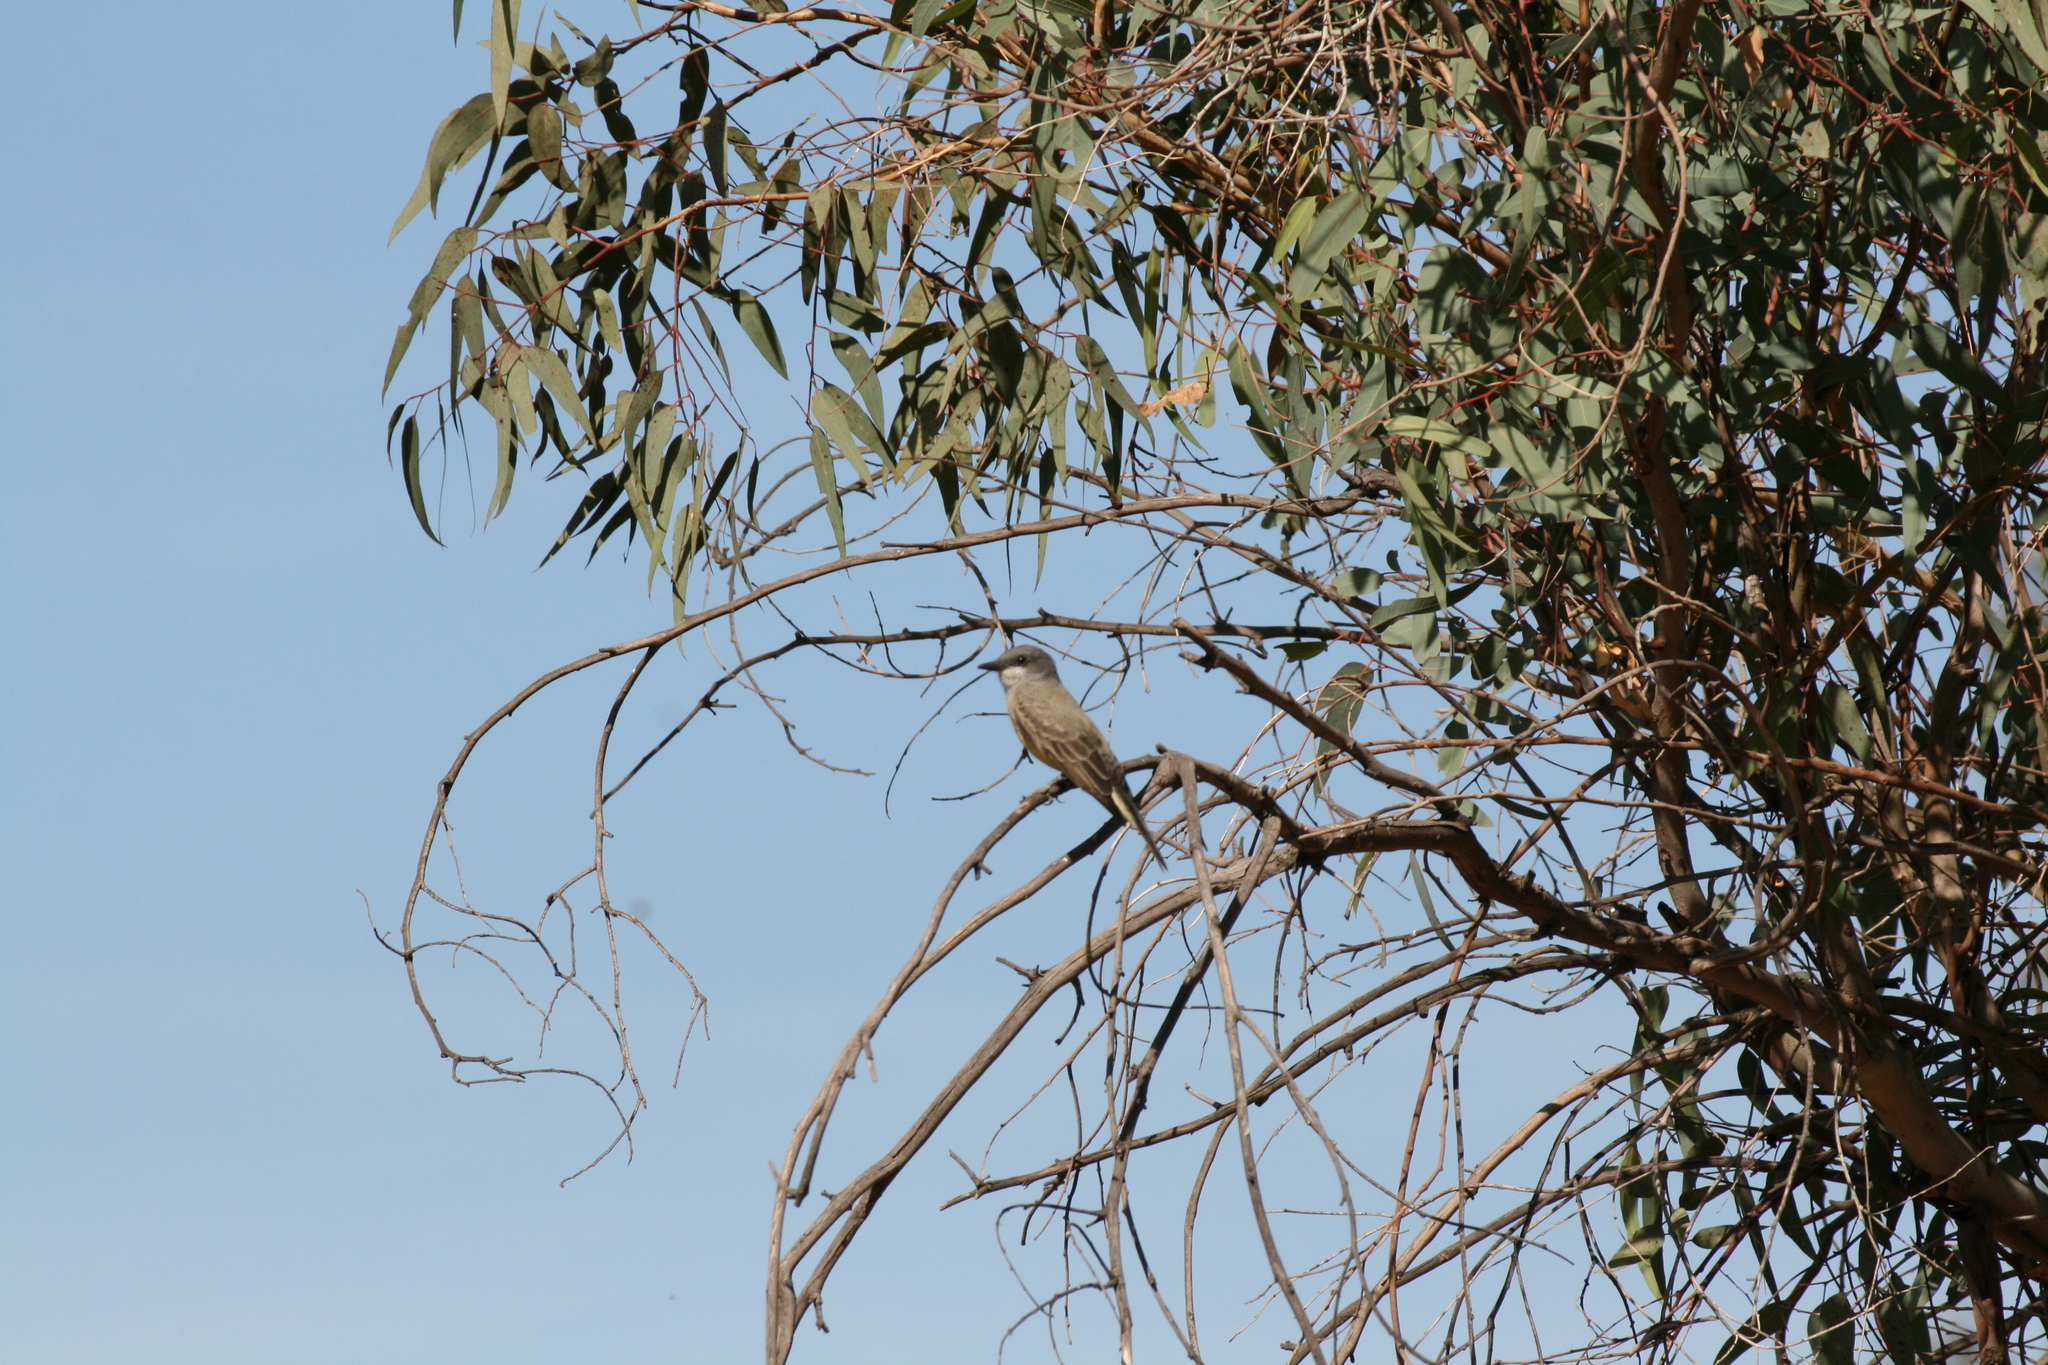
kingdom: Animalia
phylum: Chordata
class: Aves
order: Passeriformes
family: Tyrannidae
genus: Tyrannus
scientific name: Tyrannus vociferans
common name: Cassin's kingbird
